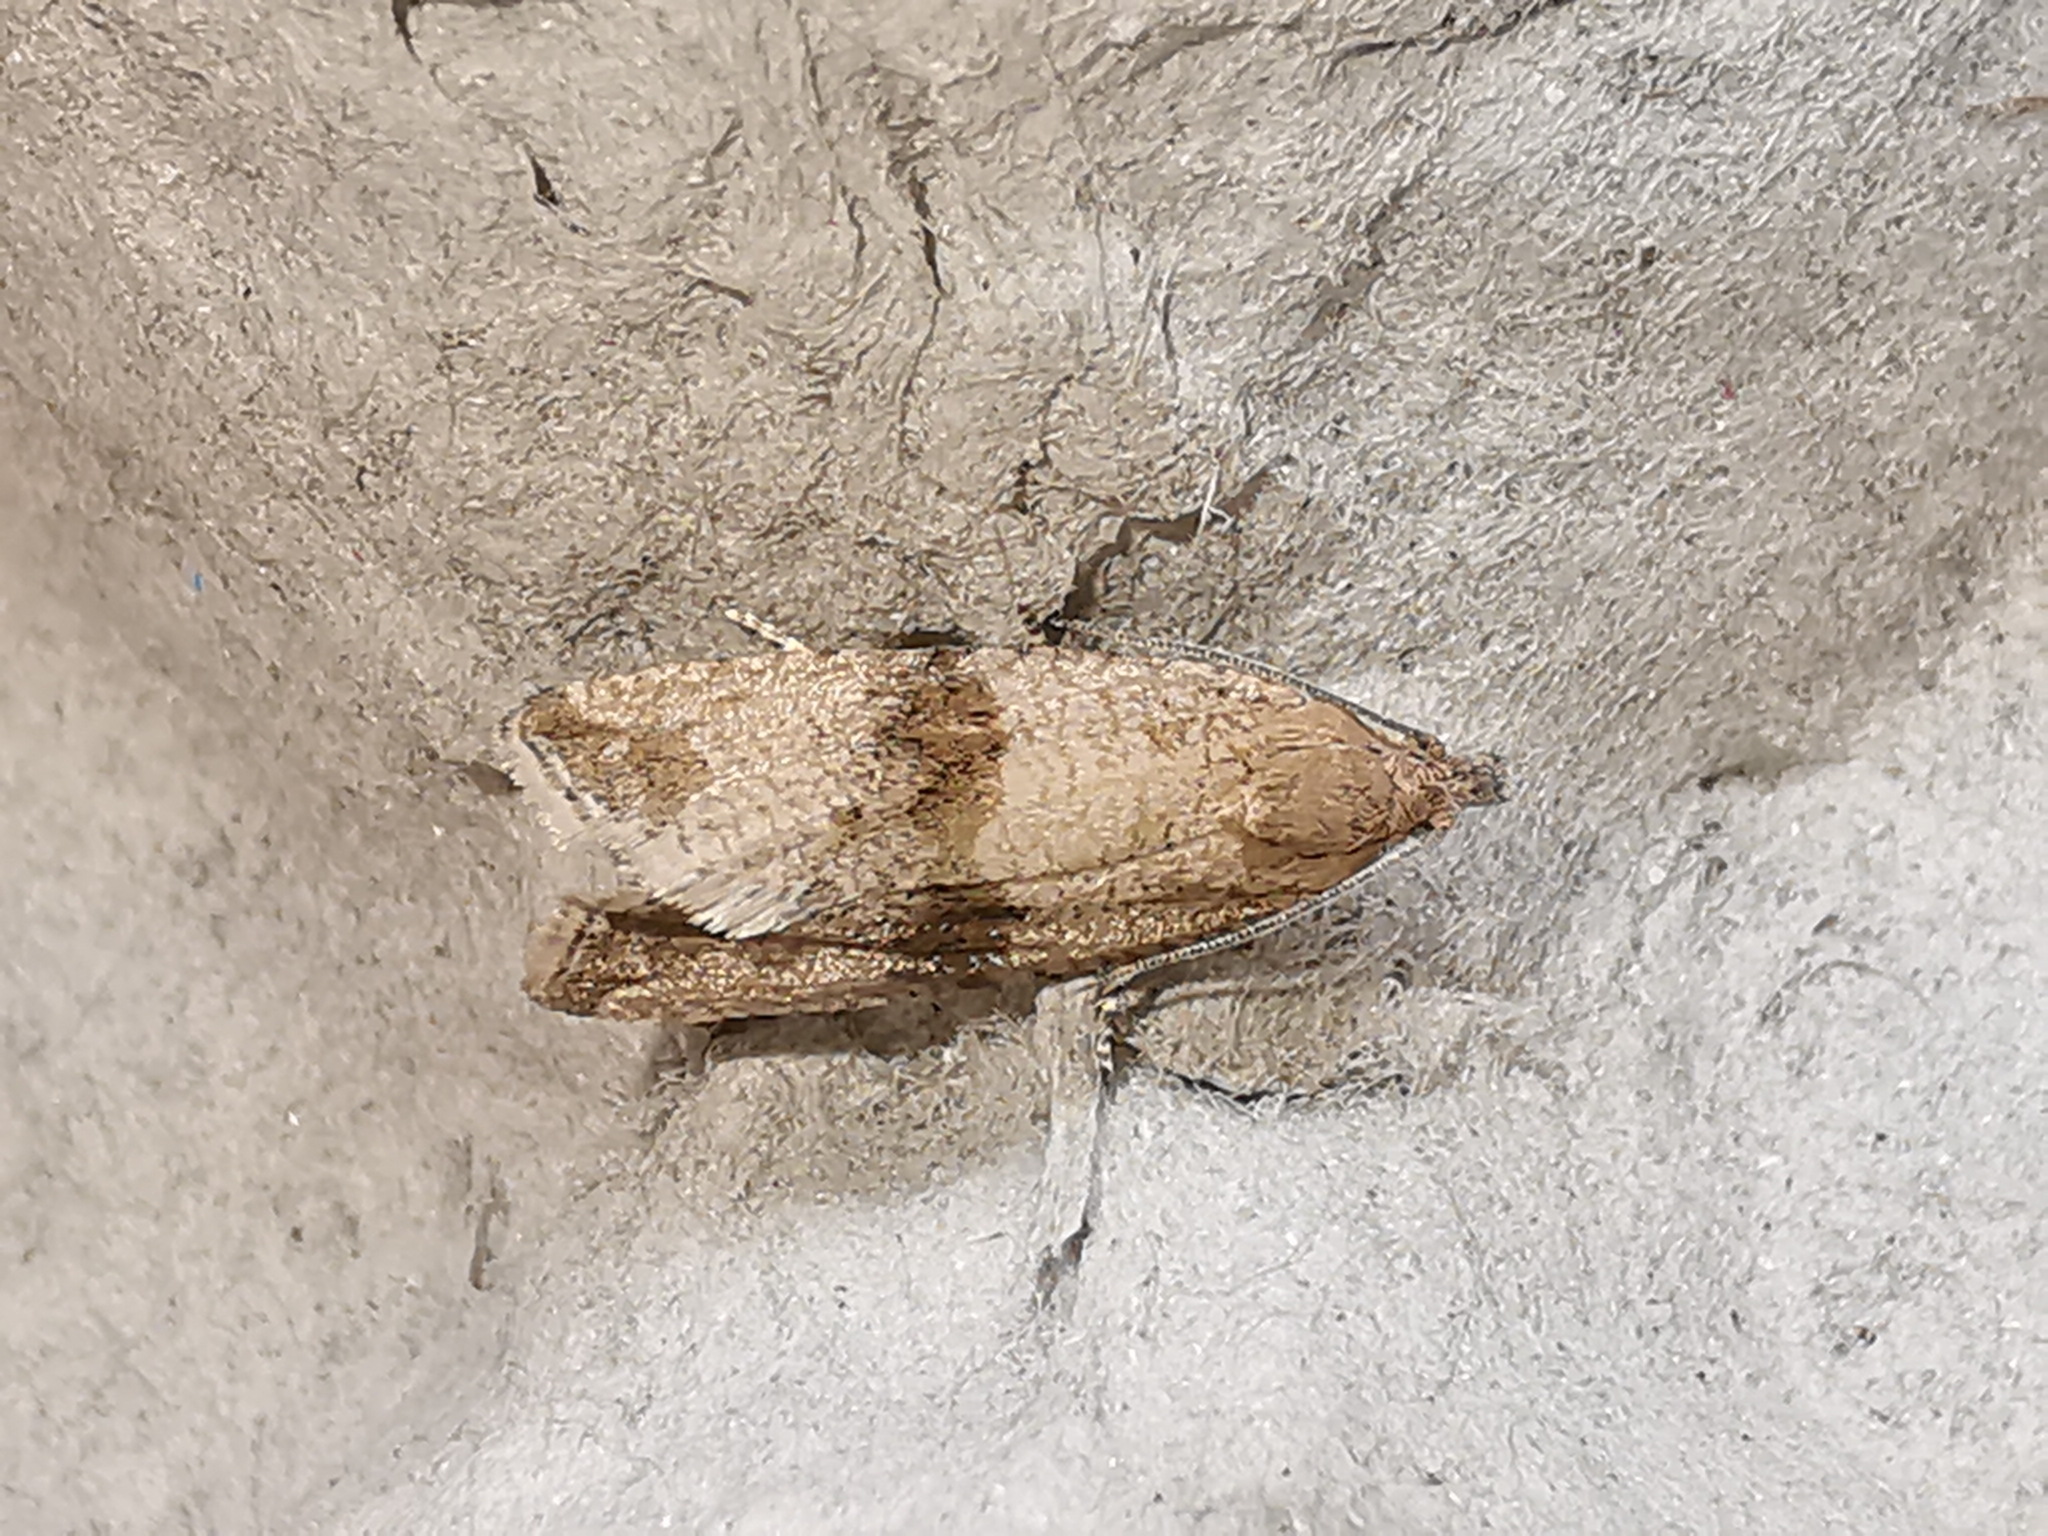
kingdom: Animalia
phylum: Arthropoda
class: Insecta
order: Lepidoptera
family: Tortricidae
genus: Celypha
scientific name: Celypha striana
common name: Barred marble
